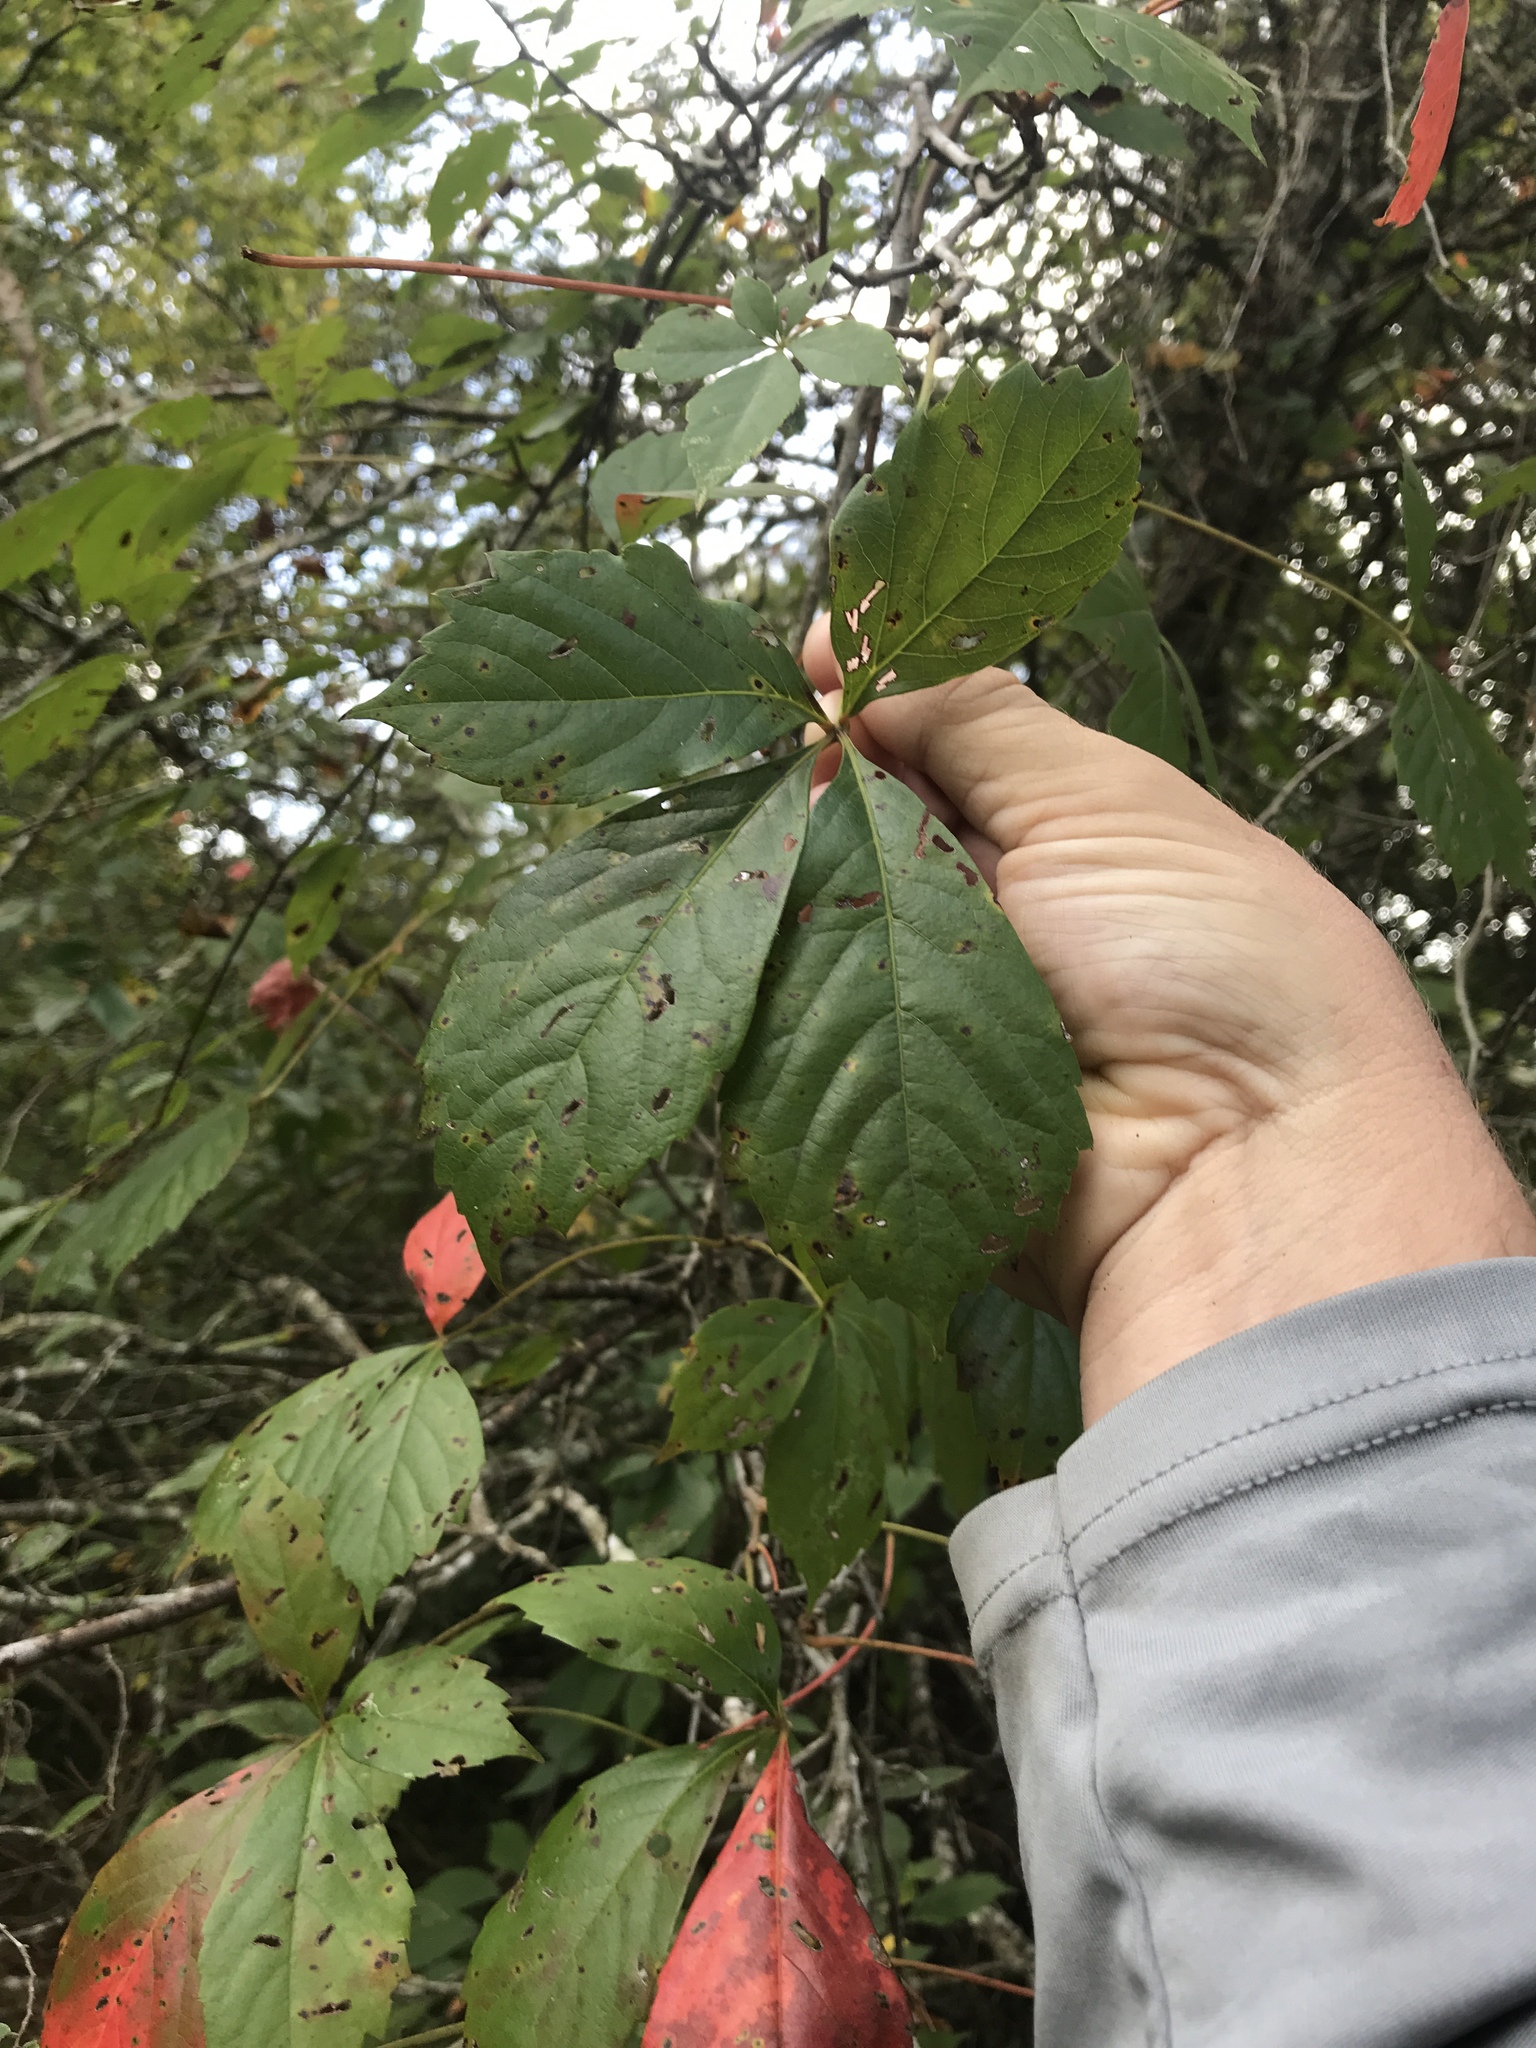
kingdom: Plantae
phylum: Tracheophyta
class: Magnoliopsida
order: Vitales
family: Vitaceae
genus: Parthenocissus
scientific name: Parthenocissus quinquefolia
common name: Virginia-creeper
